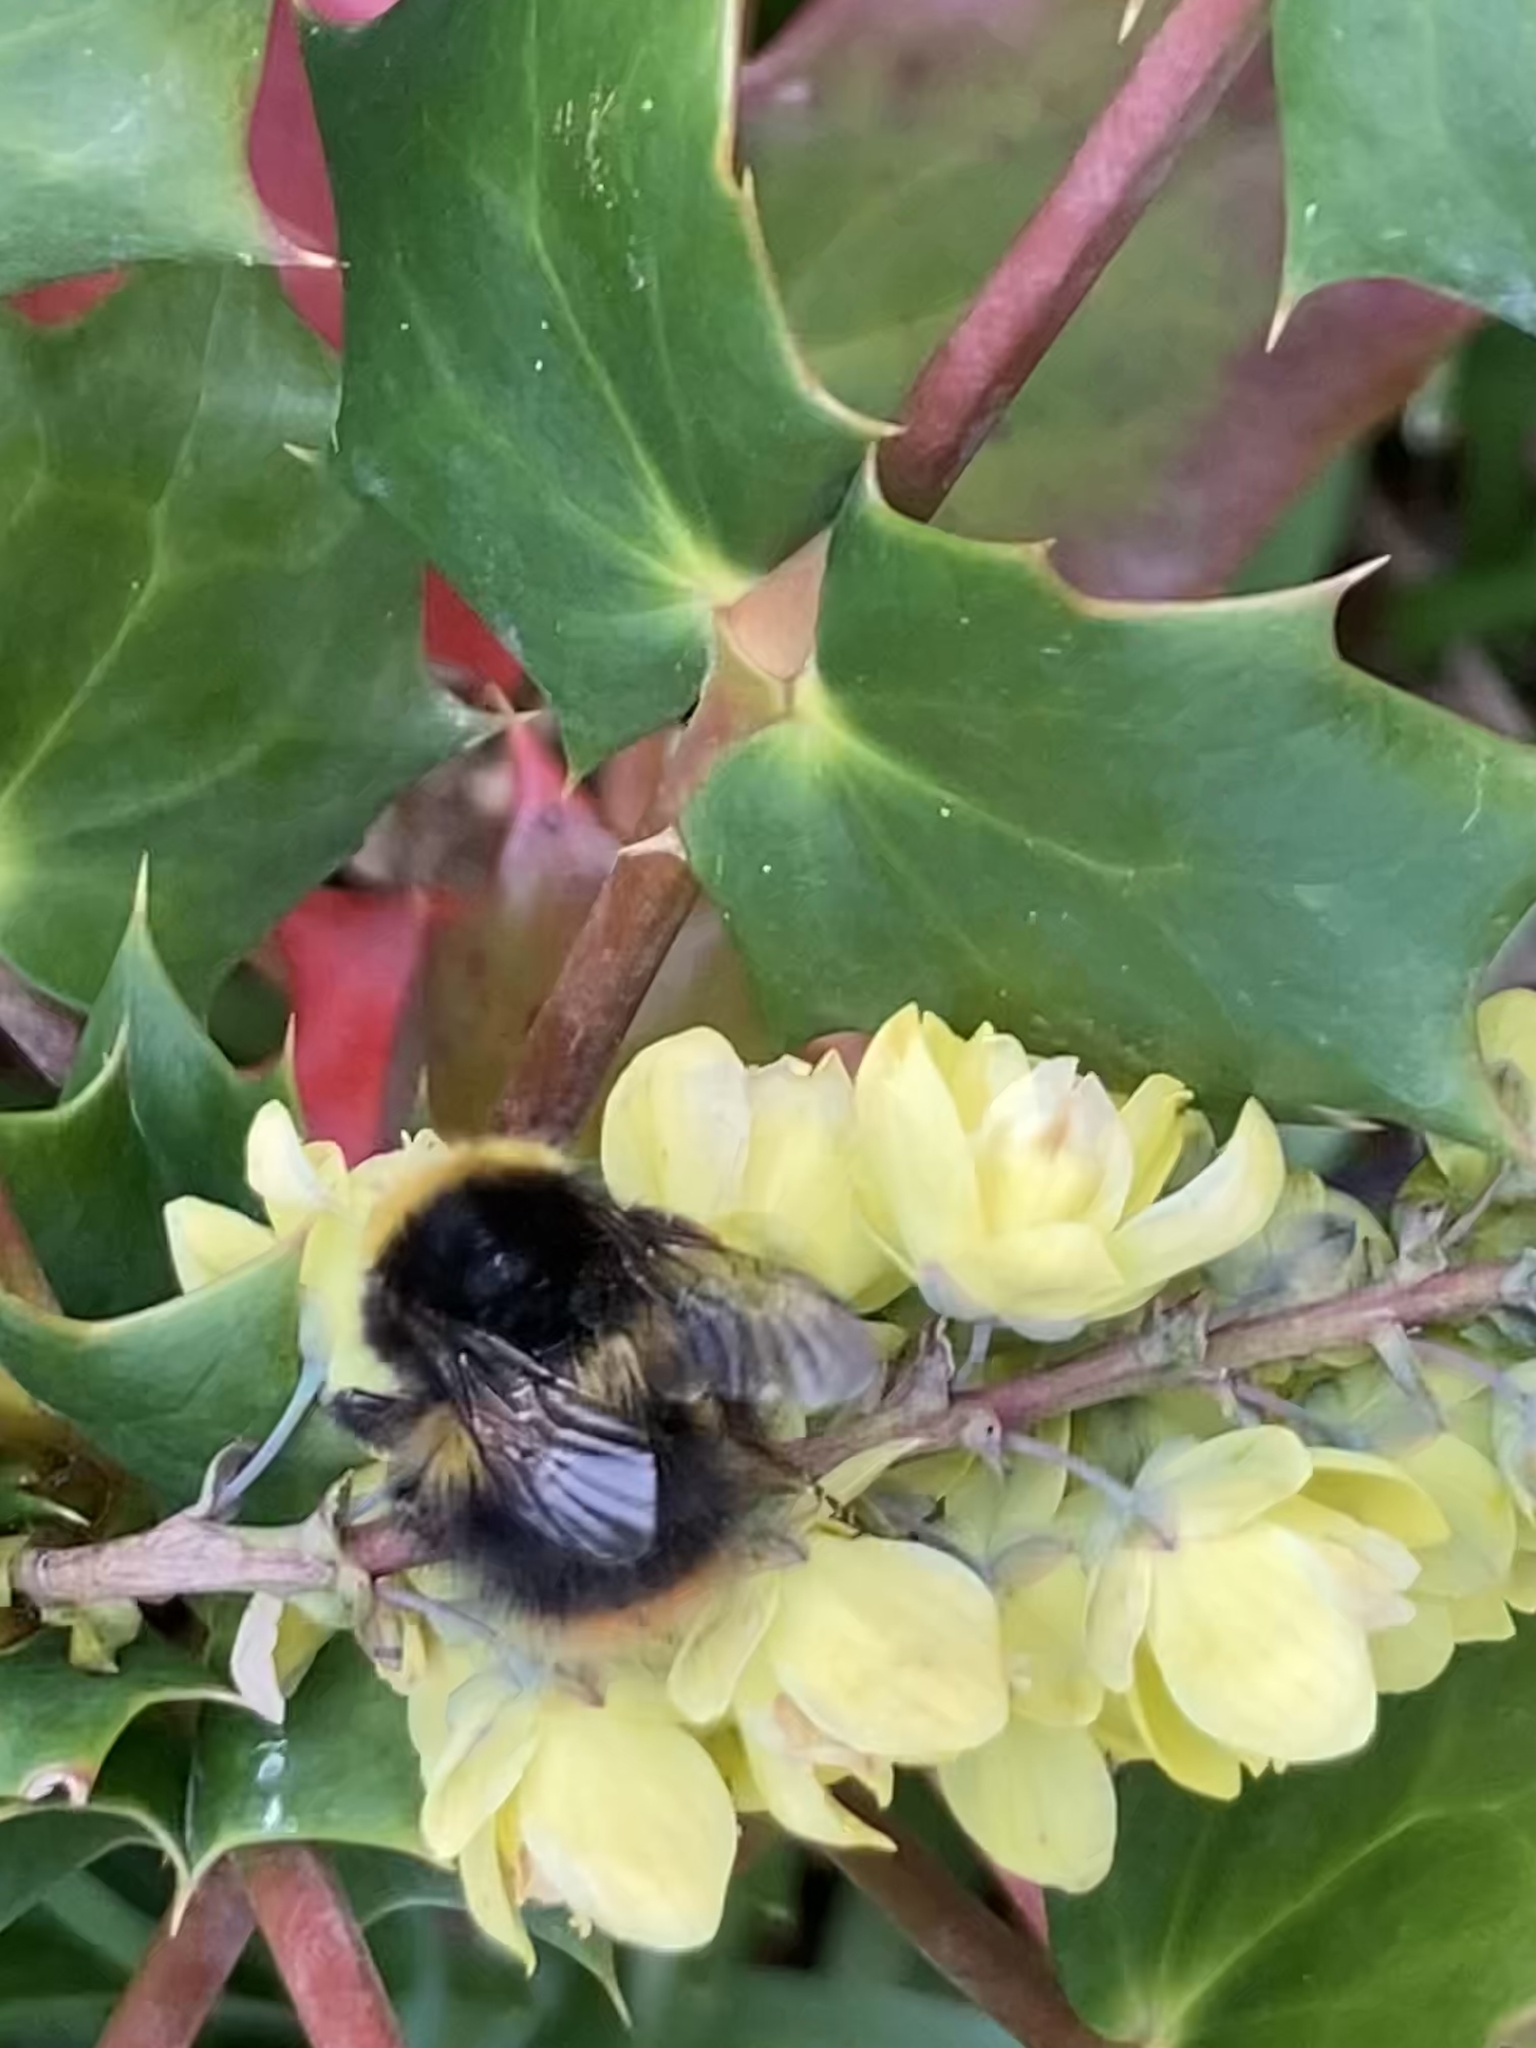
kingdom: Animalia
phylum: Arthropoda
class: Insecta
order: Hymenoptera
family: Apidae
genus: Bombus
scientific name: Bombus pratorum
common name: Early humble-bee
